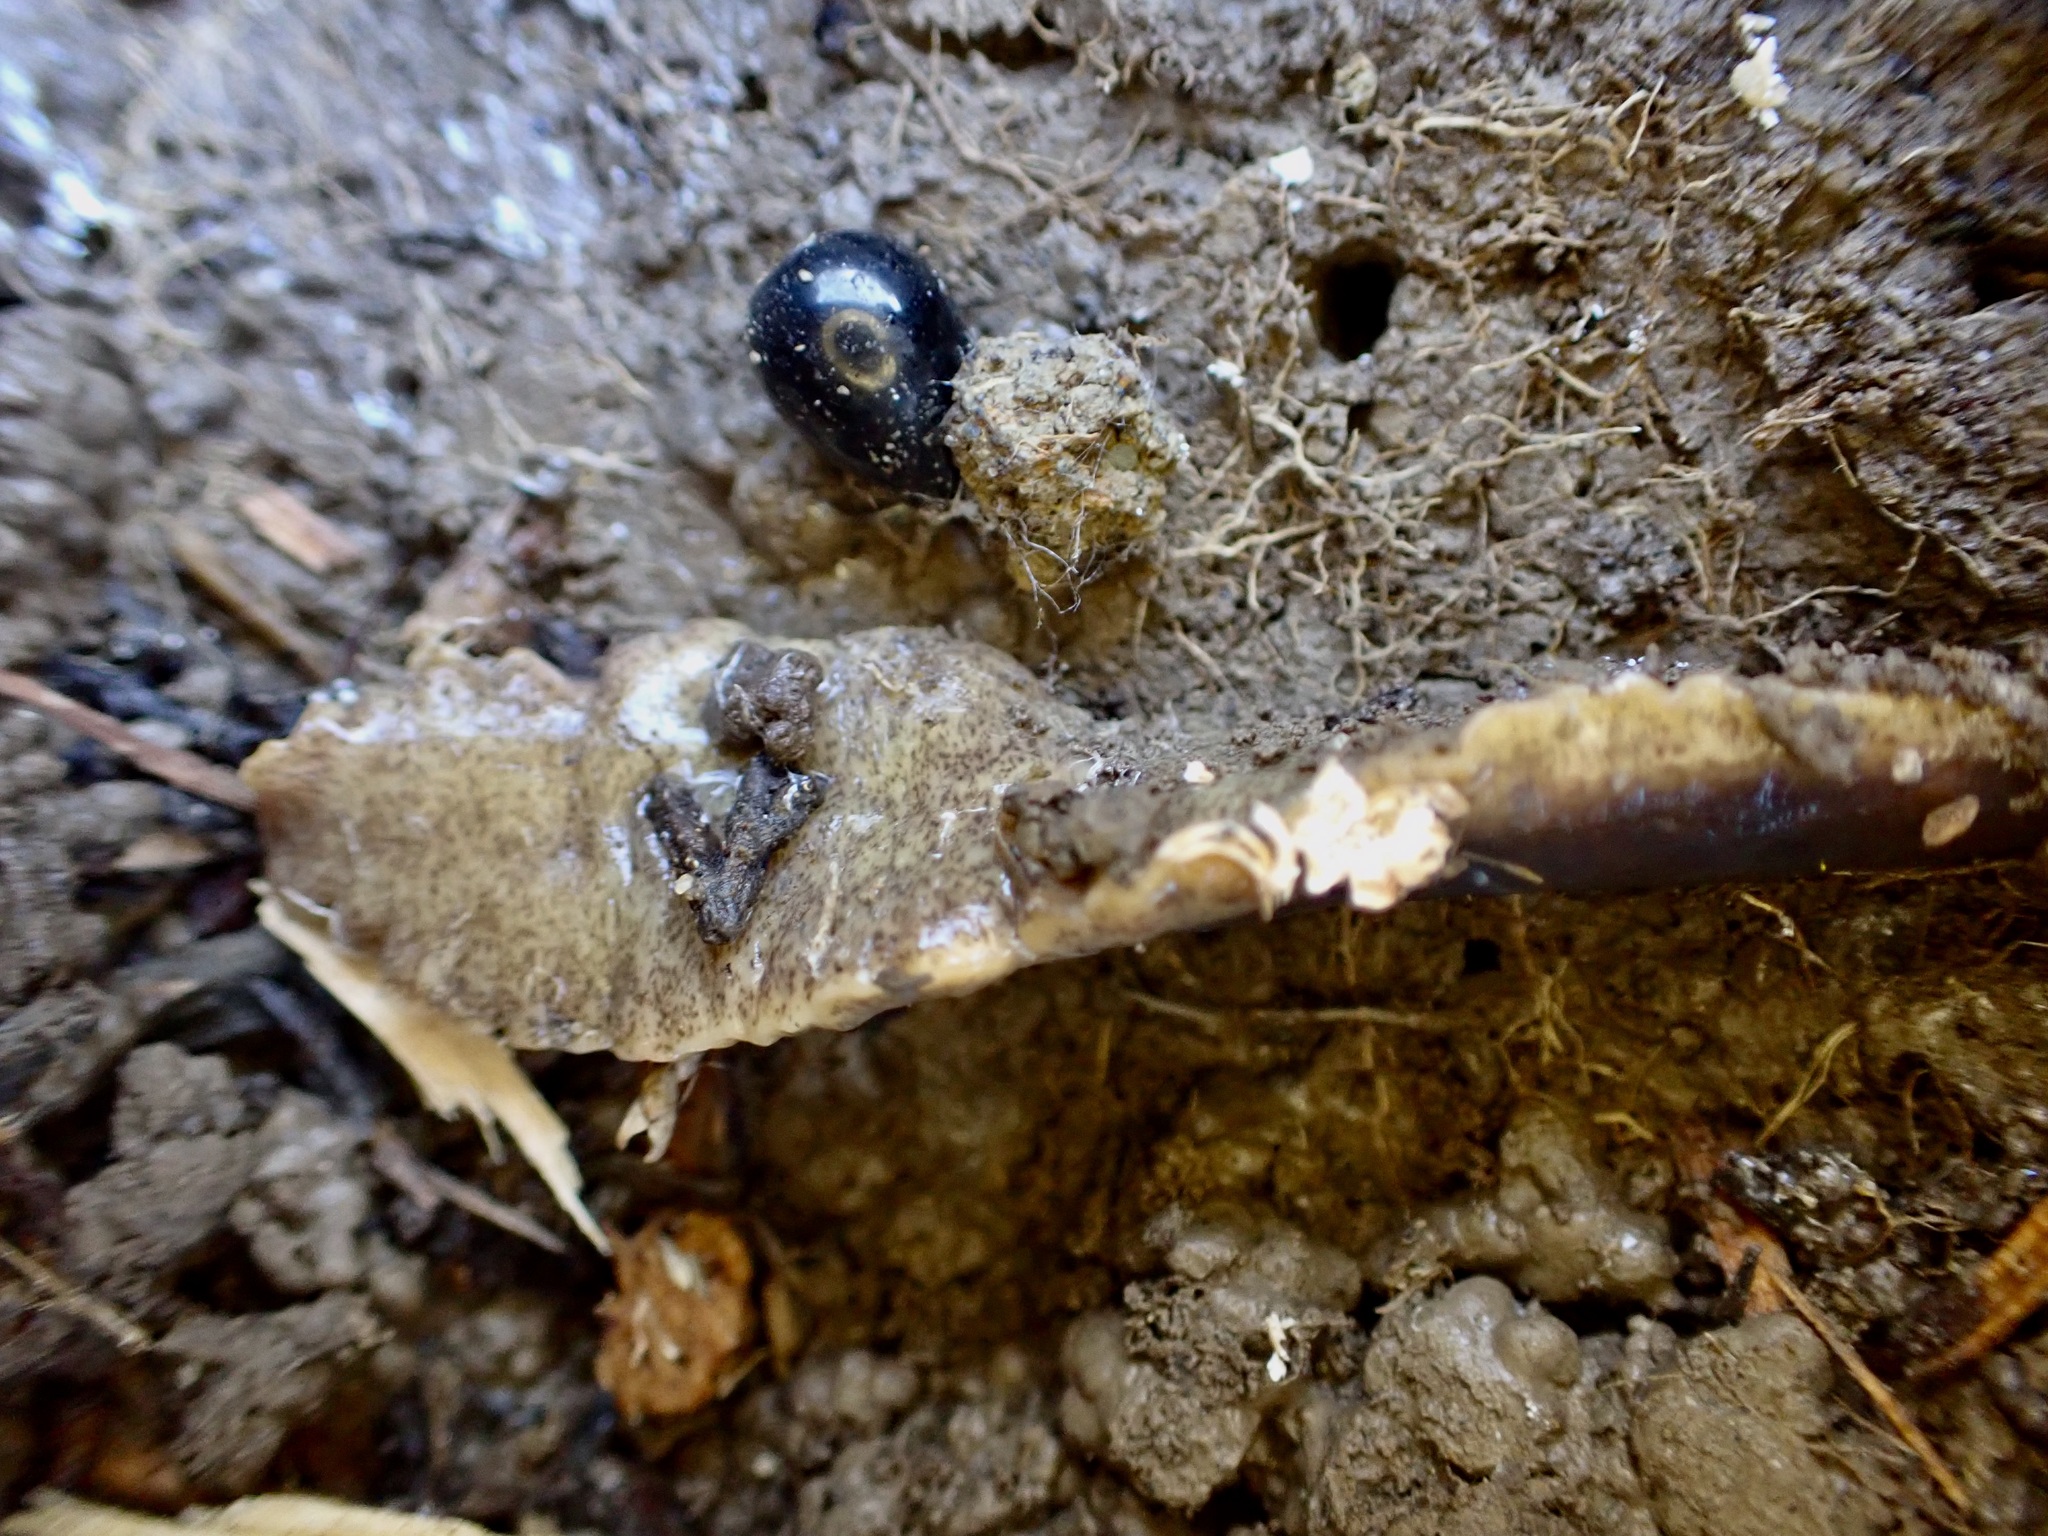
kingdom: Animalia
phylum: Platyhelminthes
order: Tricladida
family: Geoplanidae
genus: Arthurdendyus
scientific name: Arthurdendyus triangulatus
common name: New zealand flatworm
